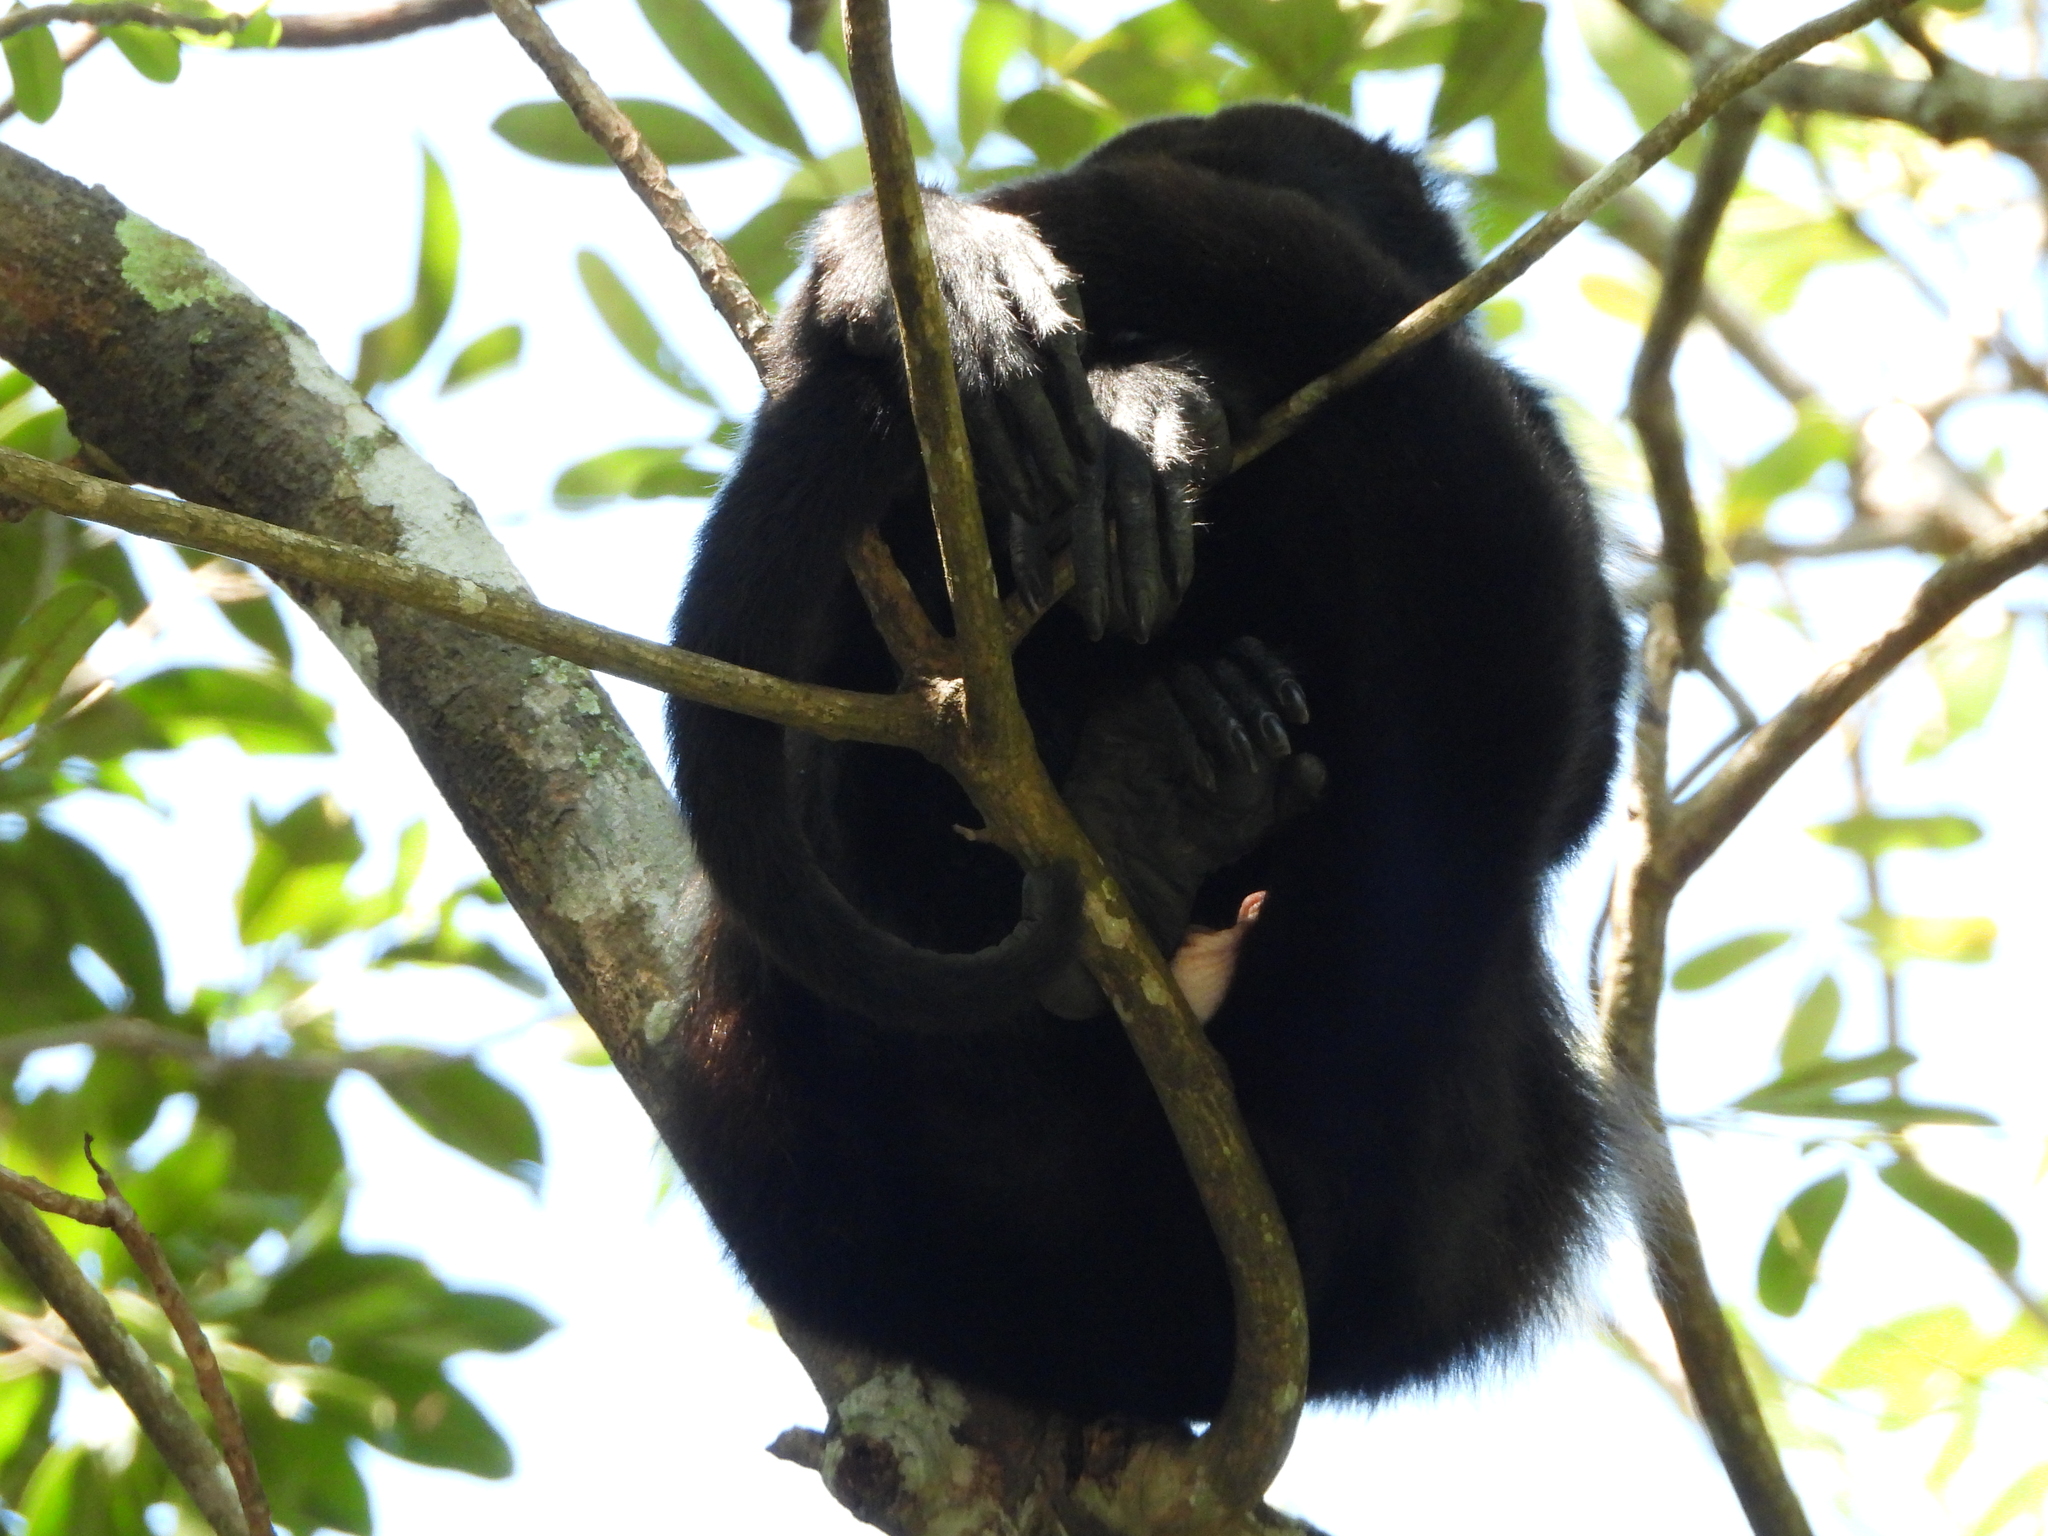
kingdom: Animalia
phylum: Chordata
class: Mammalia
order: Primates
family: Atelidae
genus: Alouatta
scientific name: Alouatta palliata
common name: Mantled howler
